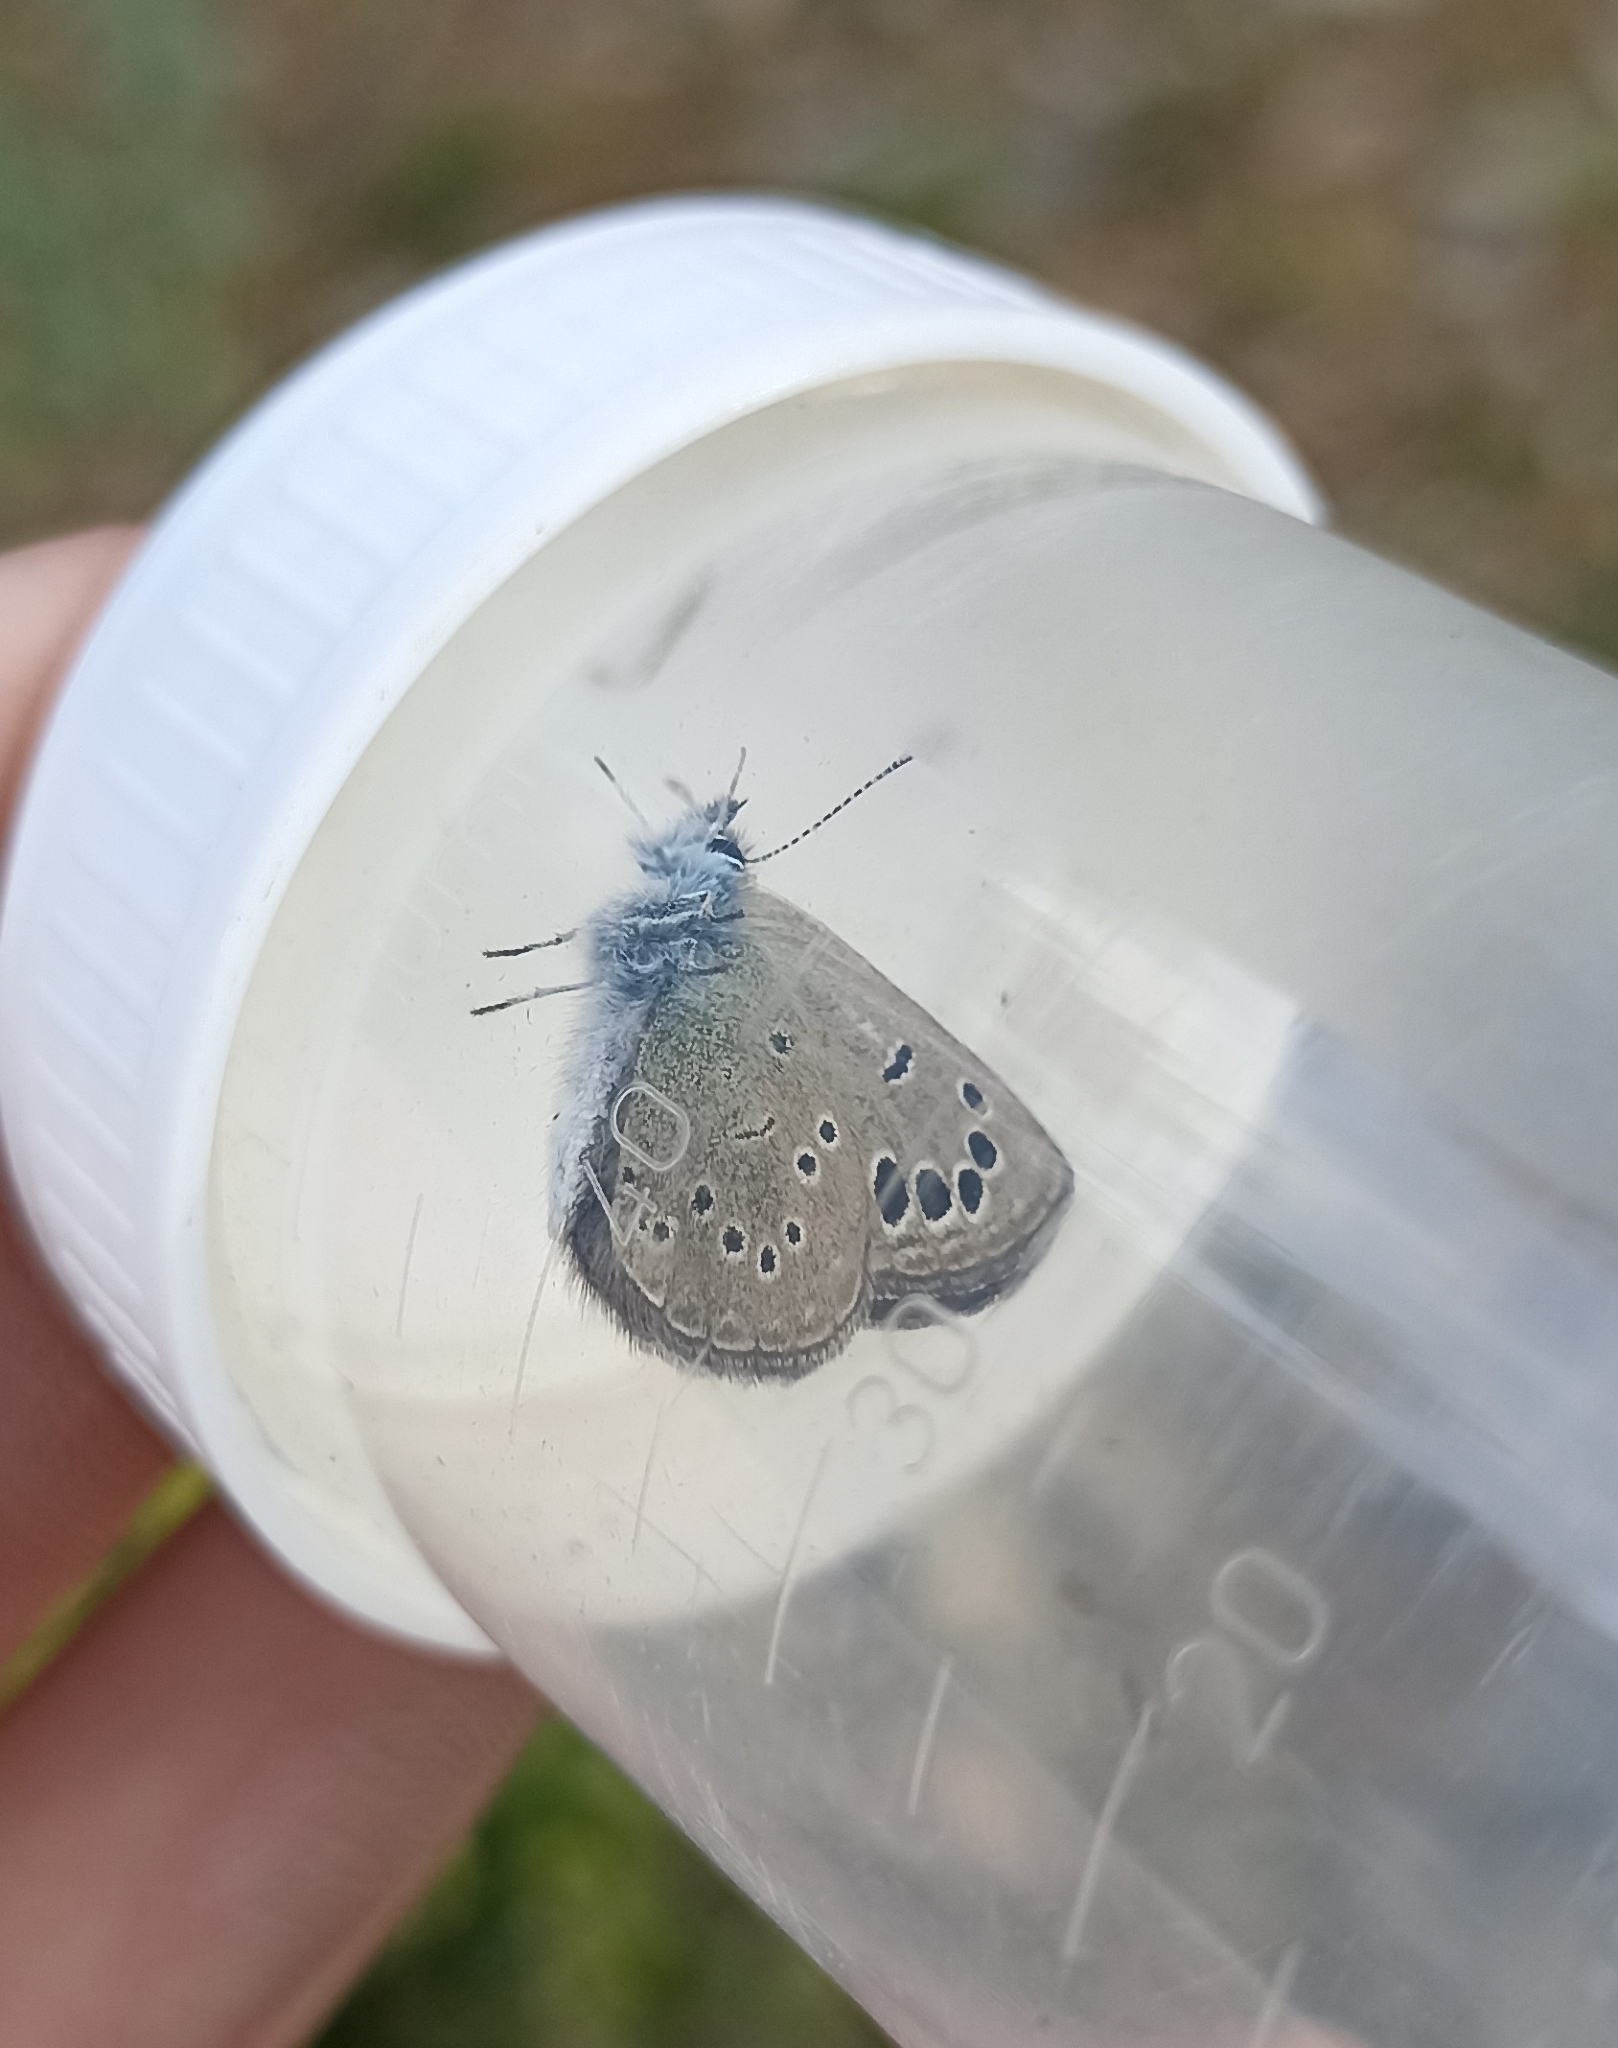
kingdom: Animalia
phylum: Arthropoda
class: Insecta
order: Lepidoptera
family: Lycaenidae
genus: Glaucopsyche
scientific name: Glaucopsyche melanops
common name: Black-eyed blue
